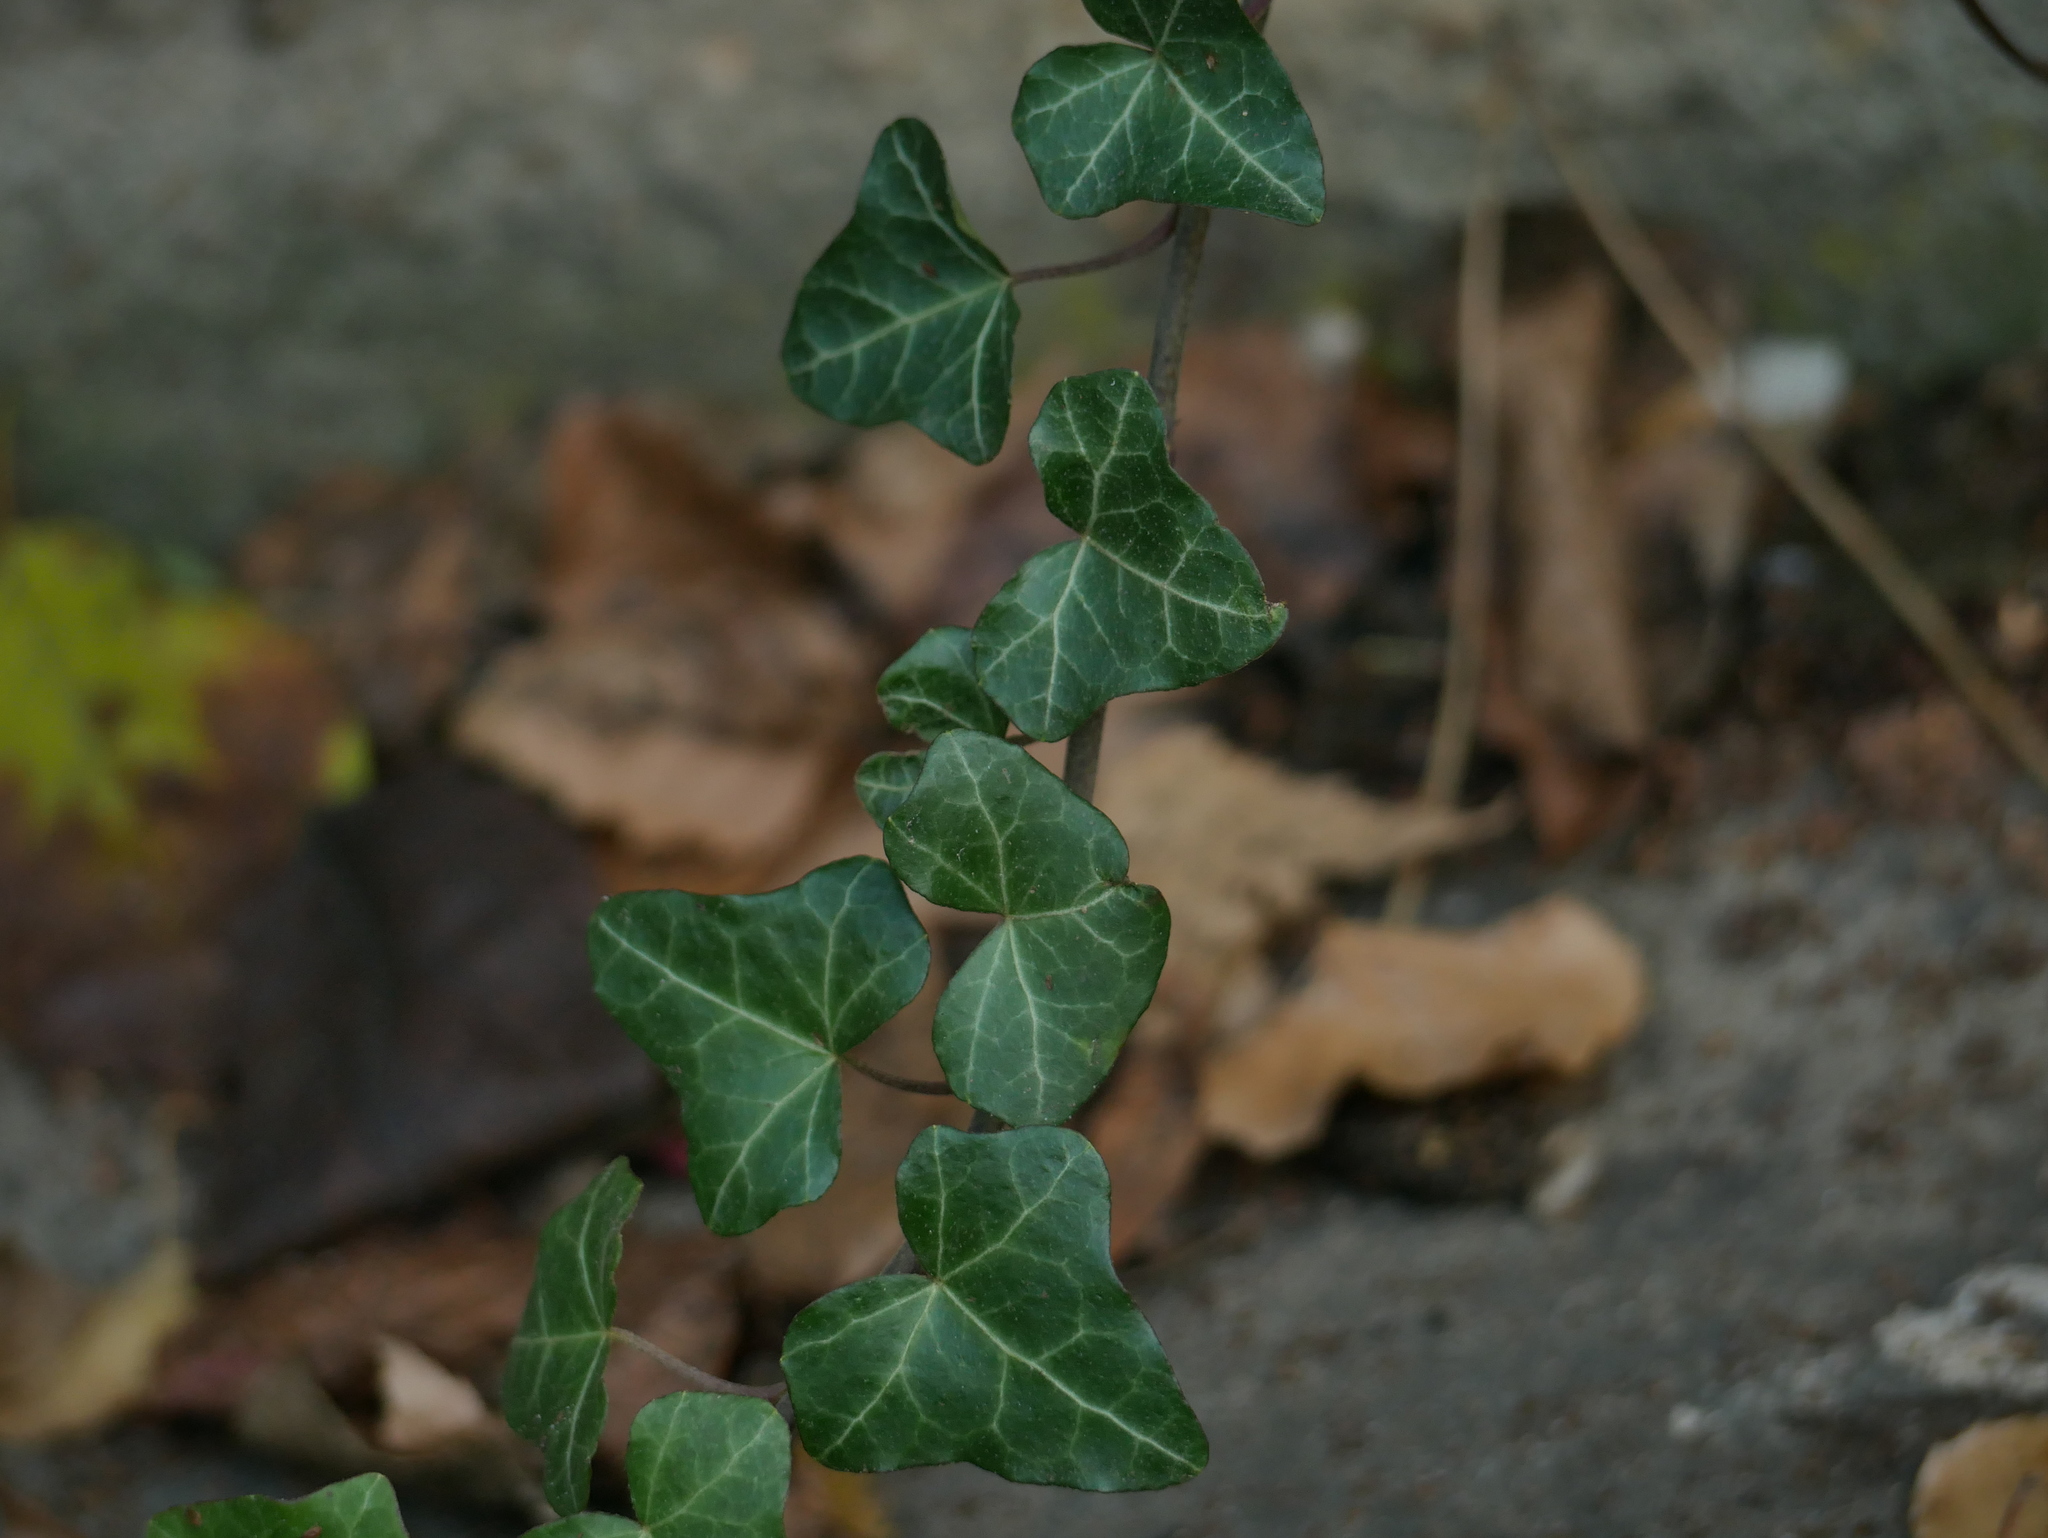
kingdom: Plantae
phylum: Tracheophyta
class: Magnoliopsida
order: Apiales
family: Araliaceae
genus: Hedera
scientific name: Hedera helix
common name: Ivy
